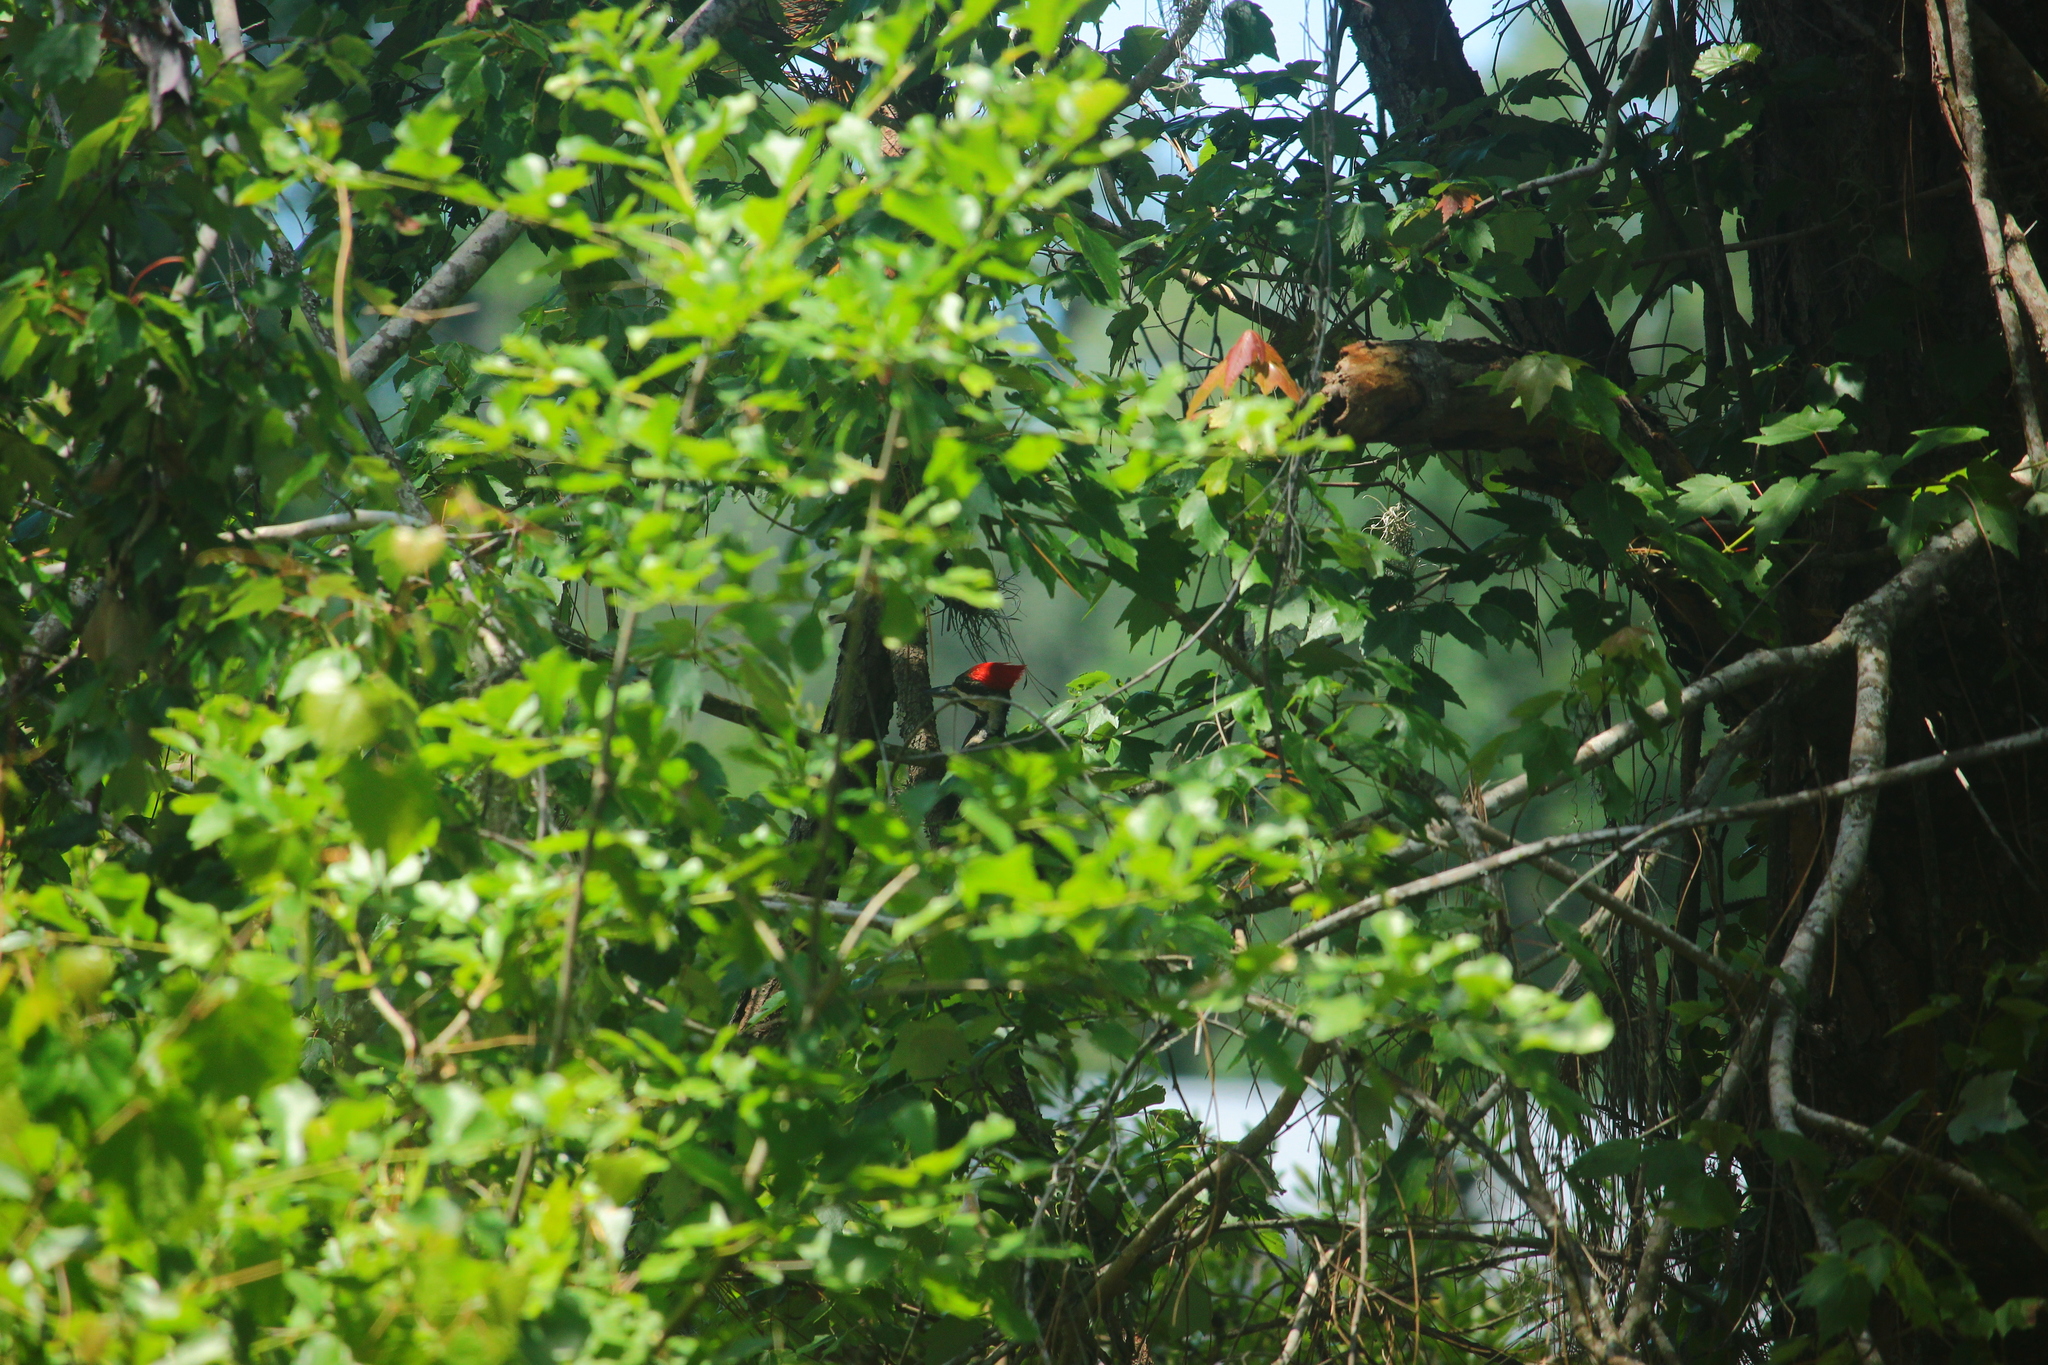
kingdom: Animalia
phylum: Chordata
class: Aves
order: Piciformes
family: Picidae
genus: Dryocopus
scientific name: Dryocopus pileatus
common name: Pileated woodpecker
